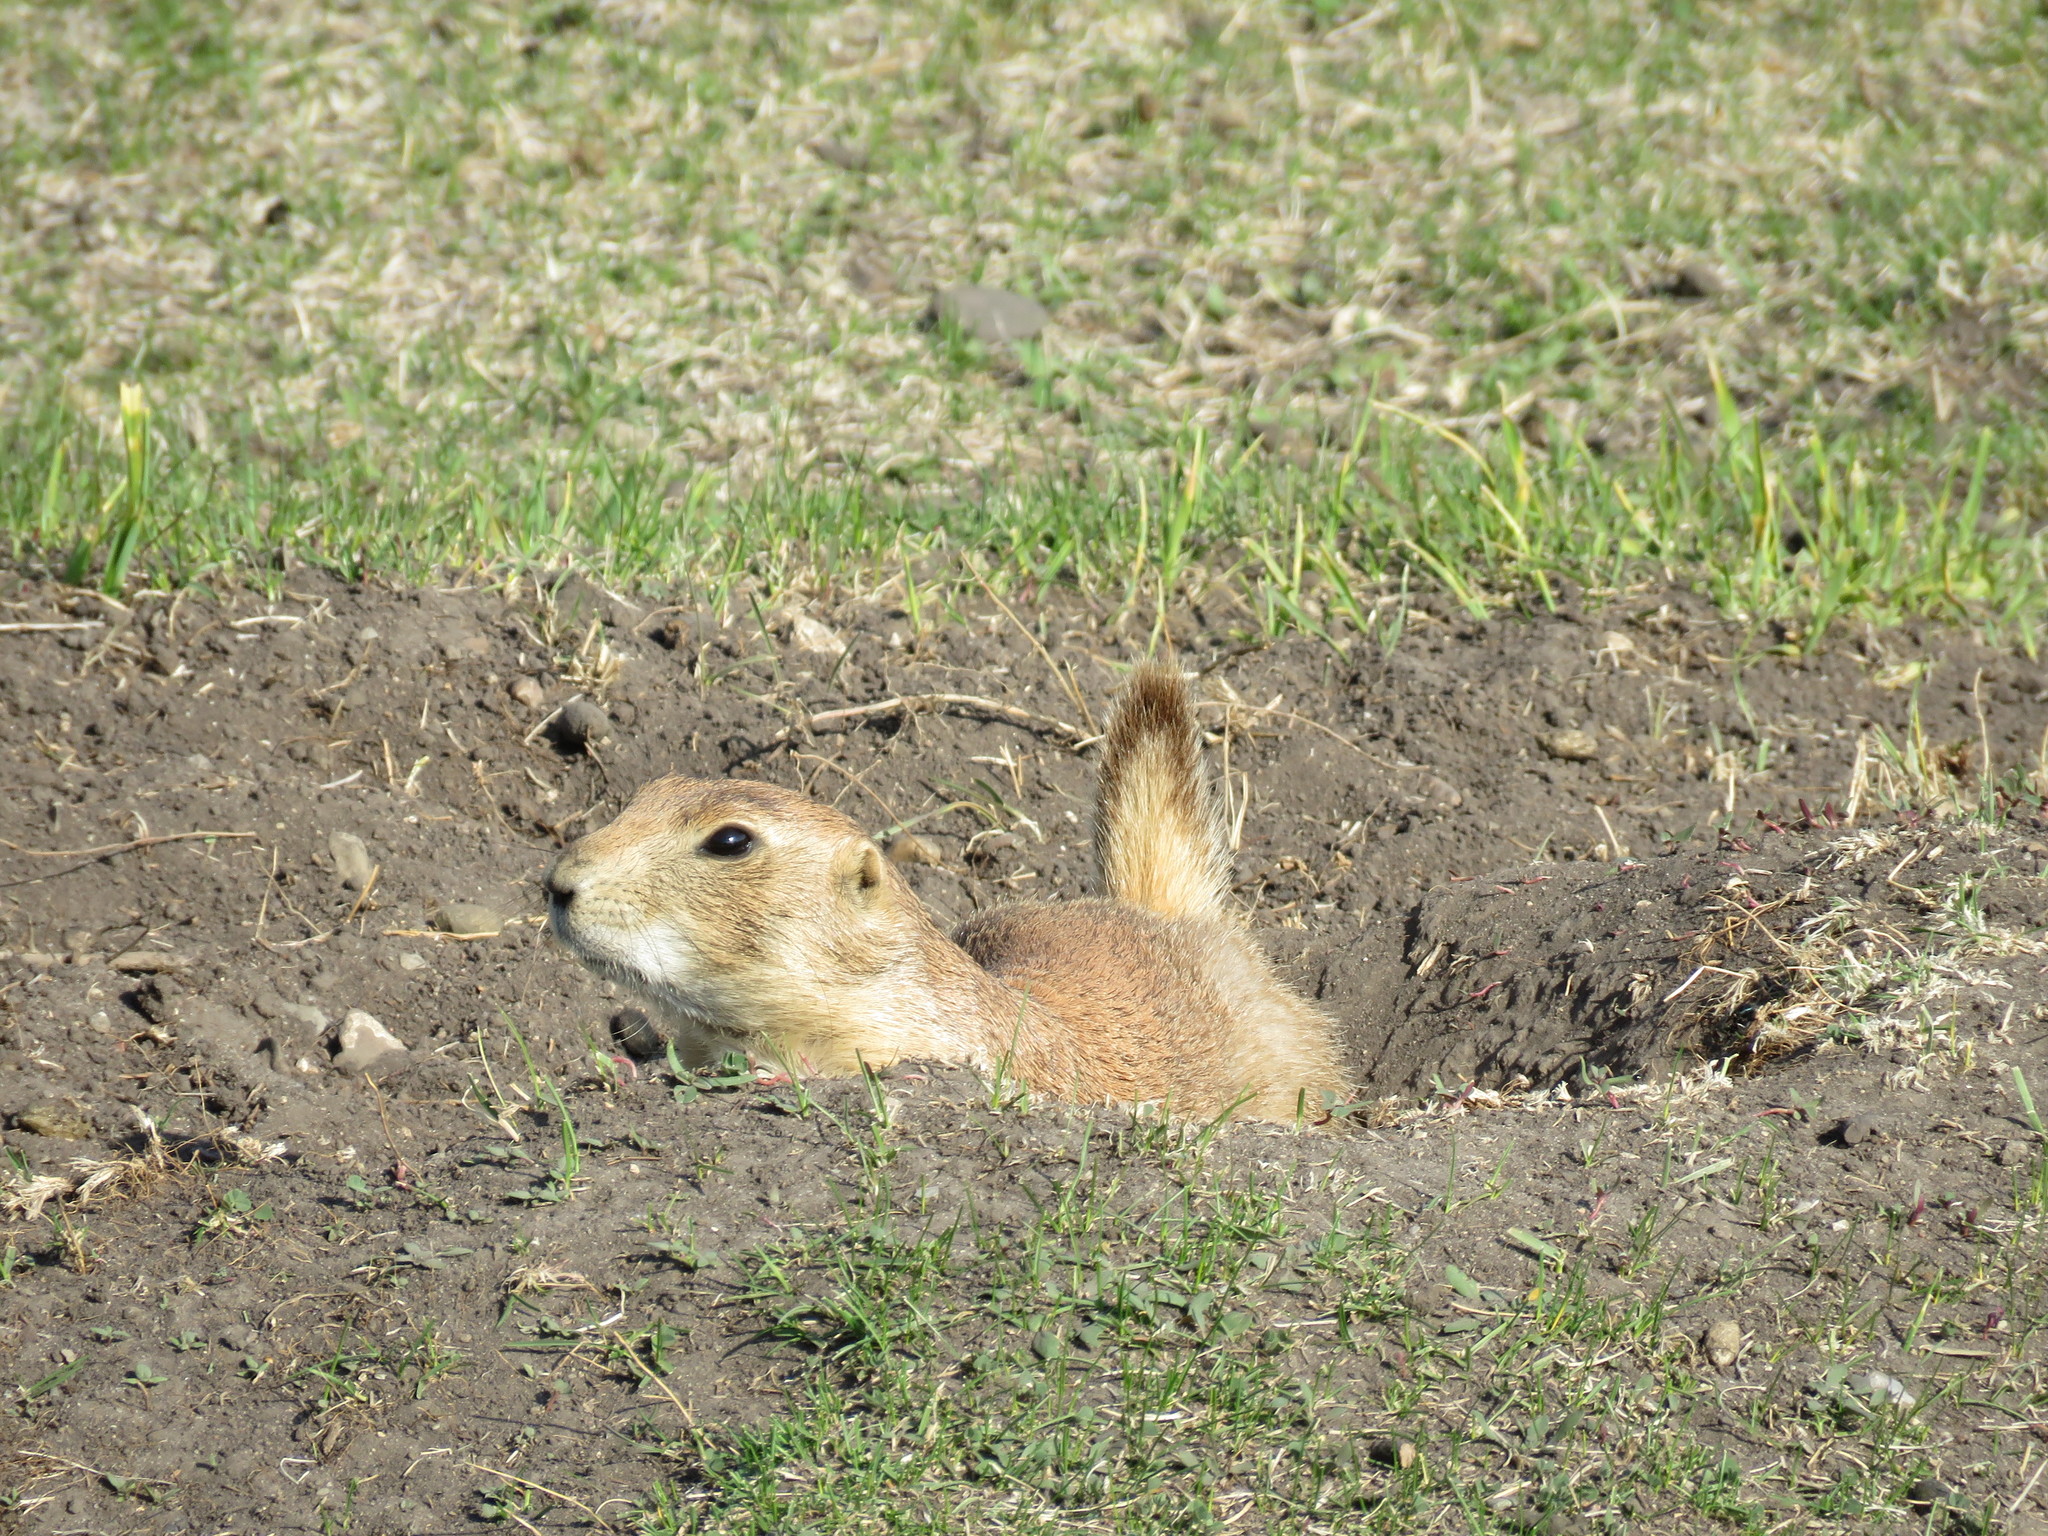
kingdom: Animalia
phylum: Chordata
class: Mammalia
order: Rodentia
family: Sciuridae
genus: Cynomys
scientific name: Cynomys ludovicianus
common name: Black-tailed prairie dog
